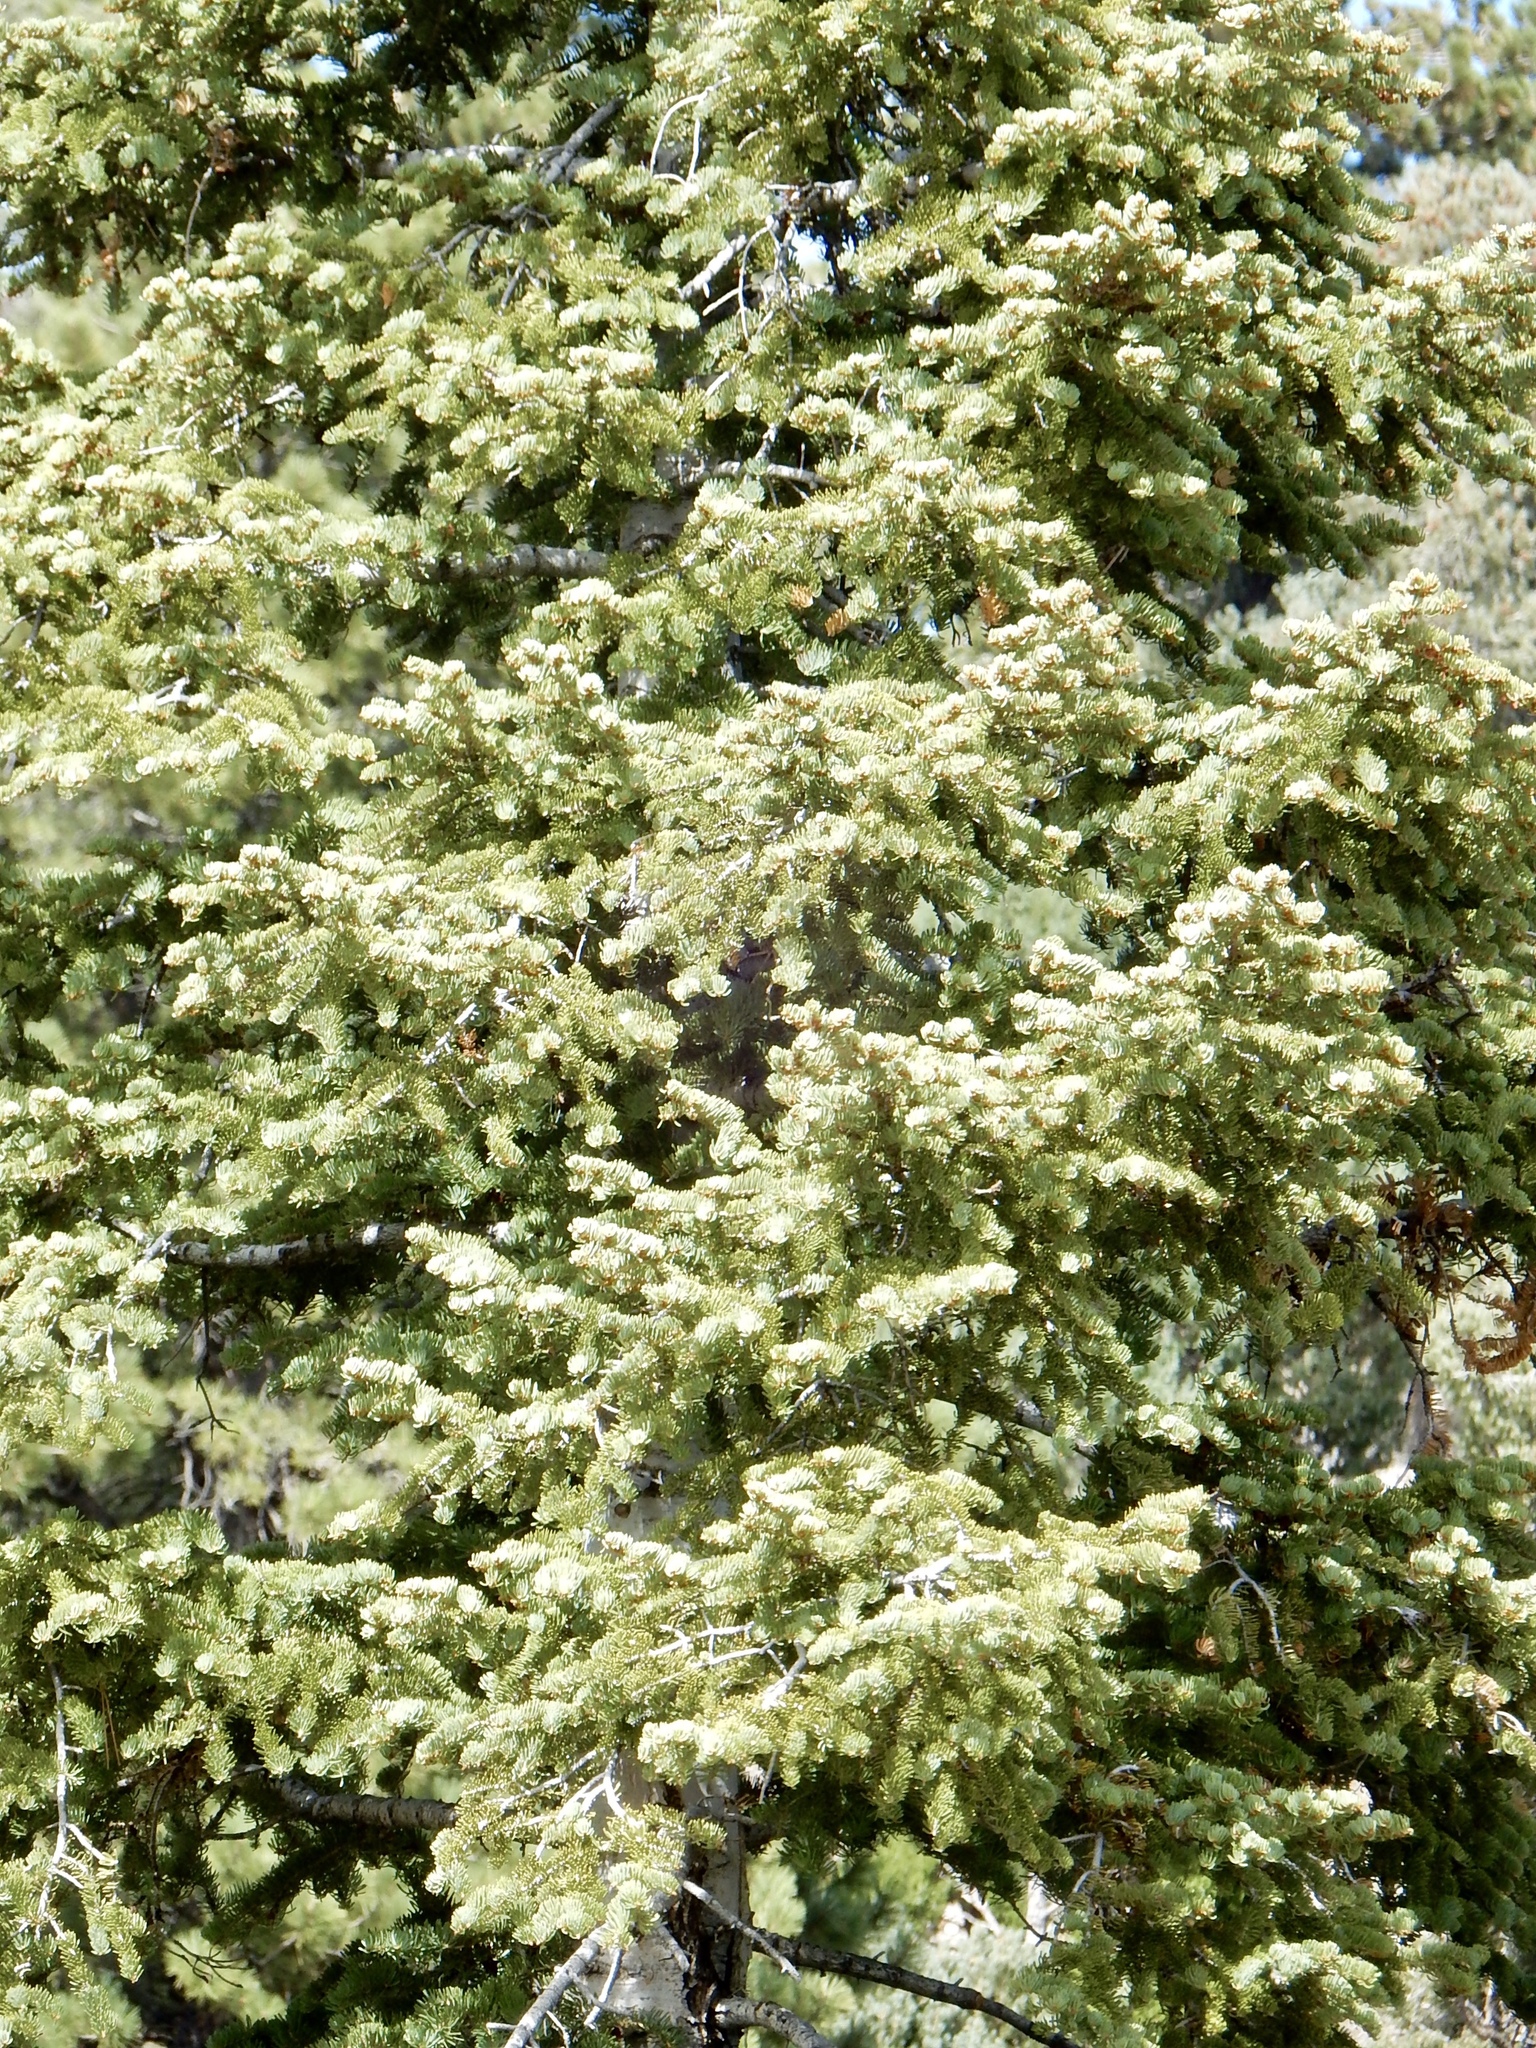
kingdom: Plantae
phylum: Tracheophyta
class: Pinopsida
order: Pinales
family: Pinaceae
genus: Abies
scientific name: Abies concolor
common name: Colorado fir
